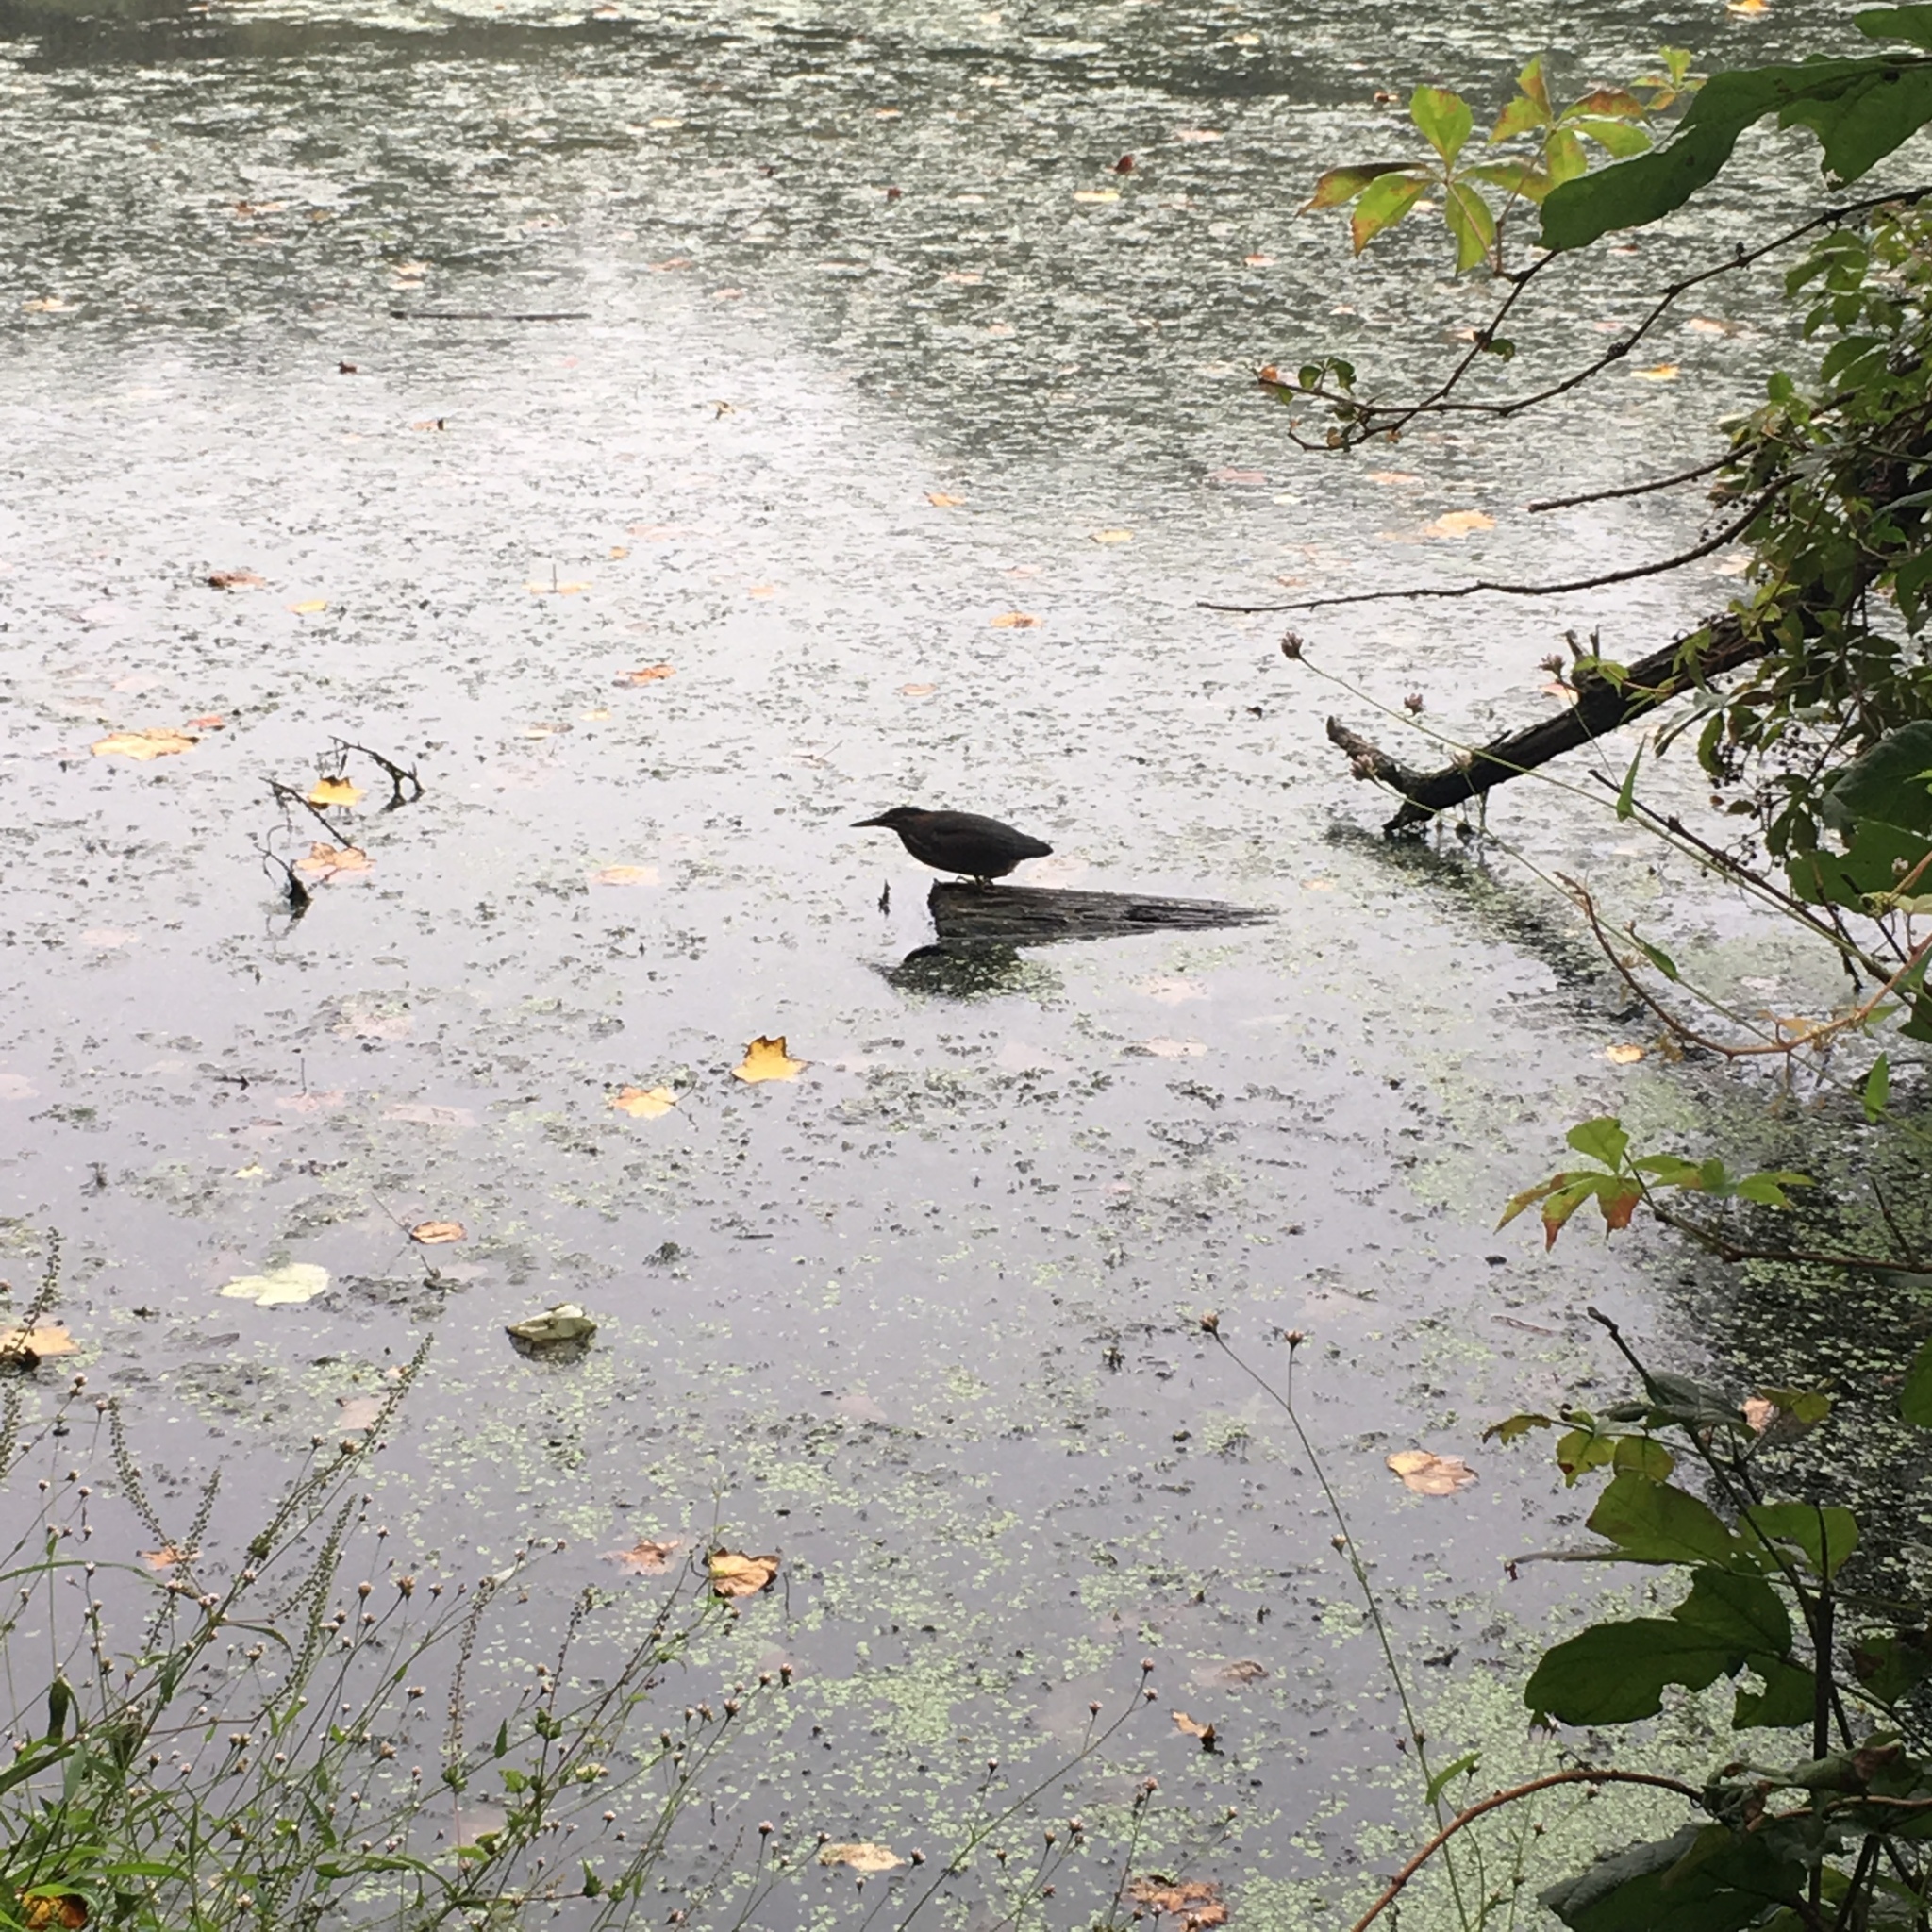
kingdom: Animalia
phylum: Chordata
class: Aves
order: Pelecaniformes
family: Ardeidae
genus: Butorides
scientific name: Butorides virescens
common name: Green heron
